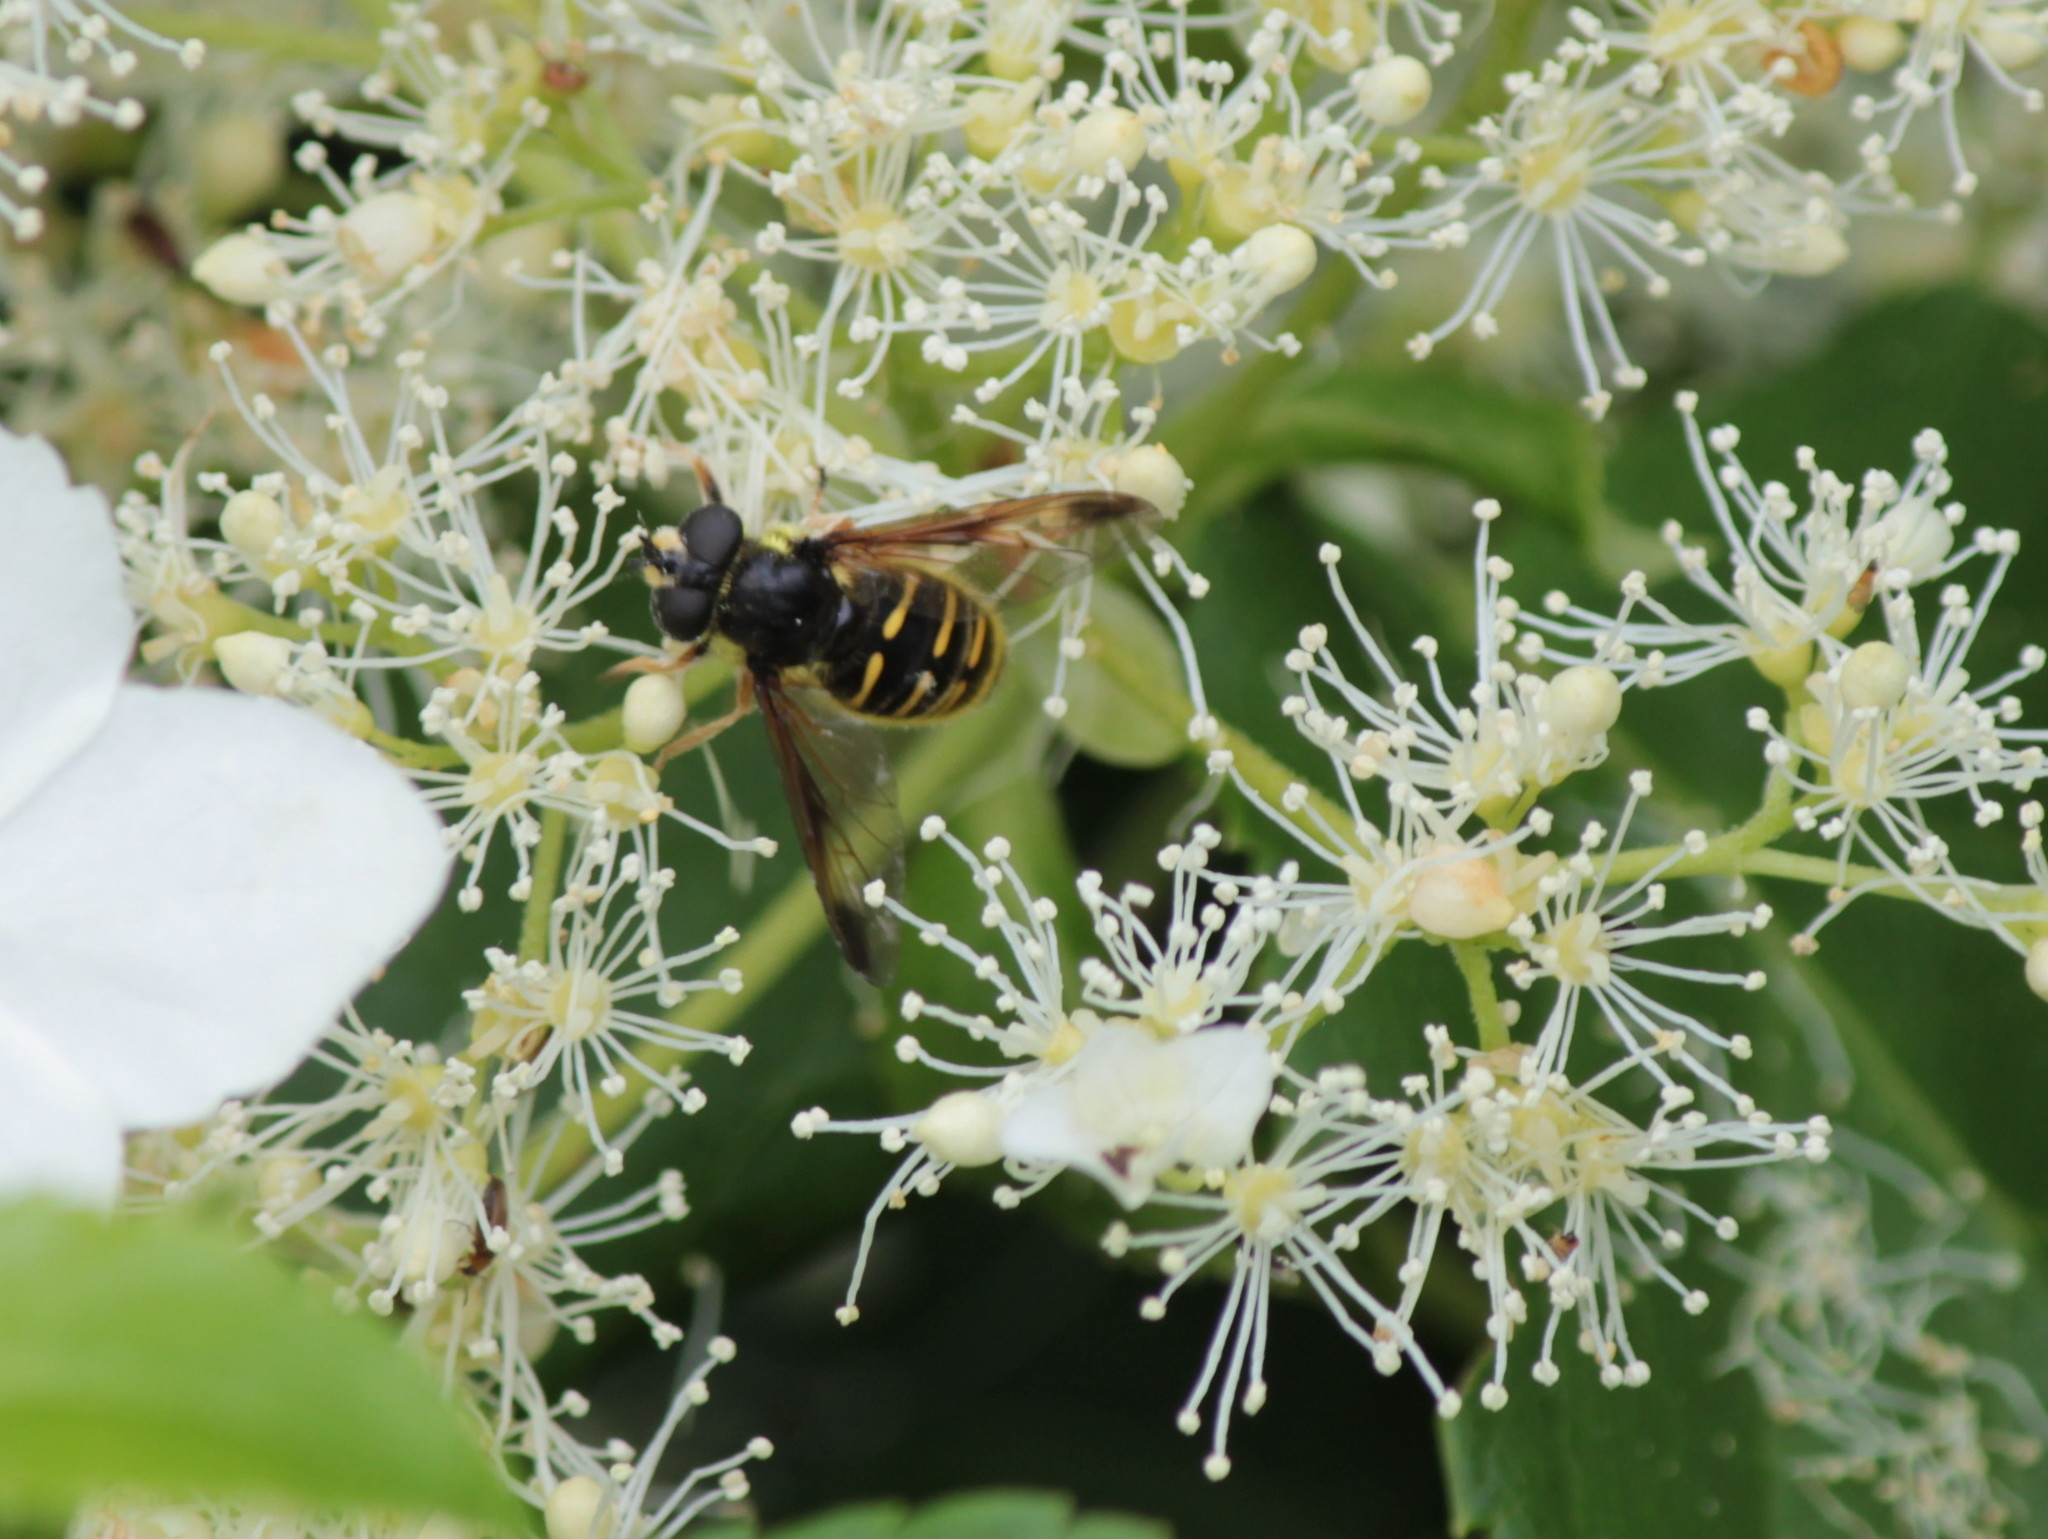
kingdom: Animalia
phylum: Arthropoda
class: Insecta
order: Diptera
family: Syrphidae
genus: Sericomyia
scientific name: Sericomyia chrysotoxoides
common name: Oblique-banded pond fly
